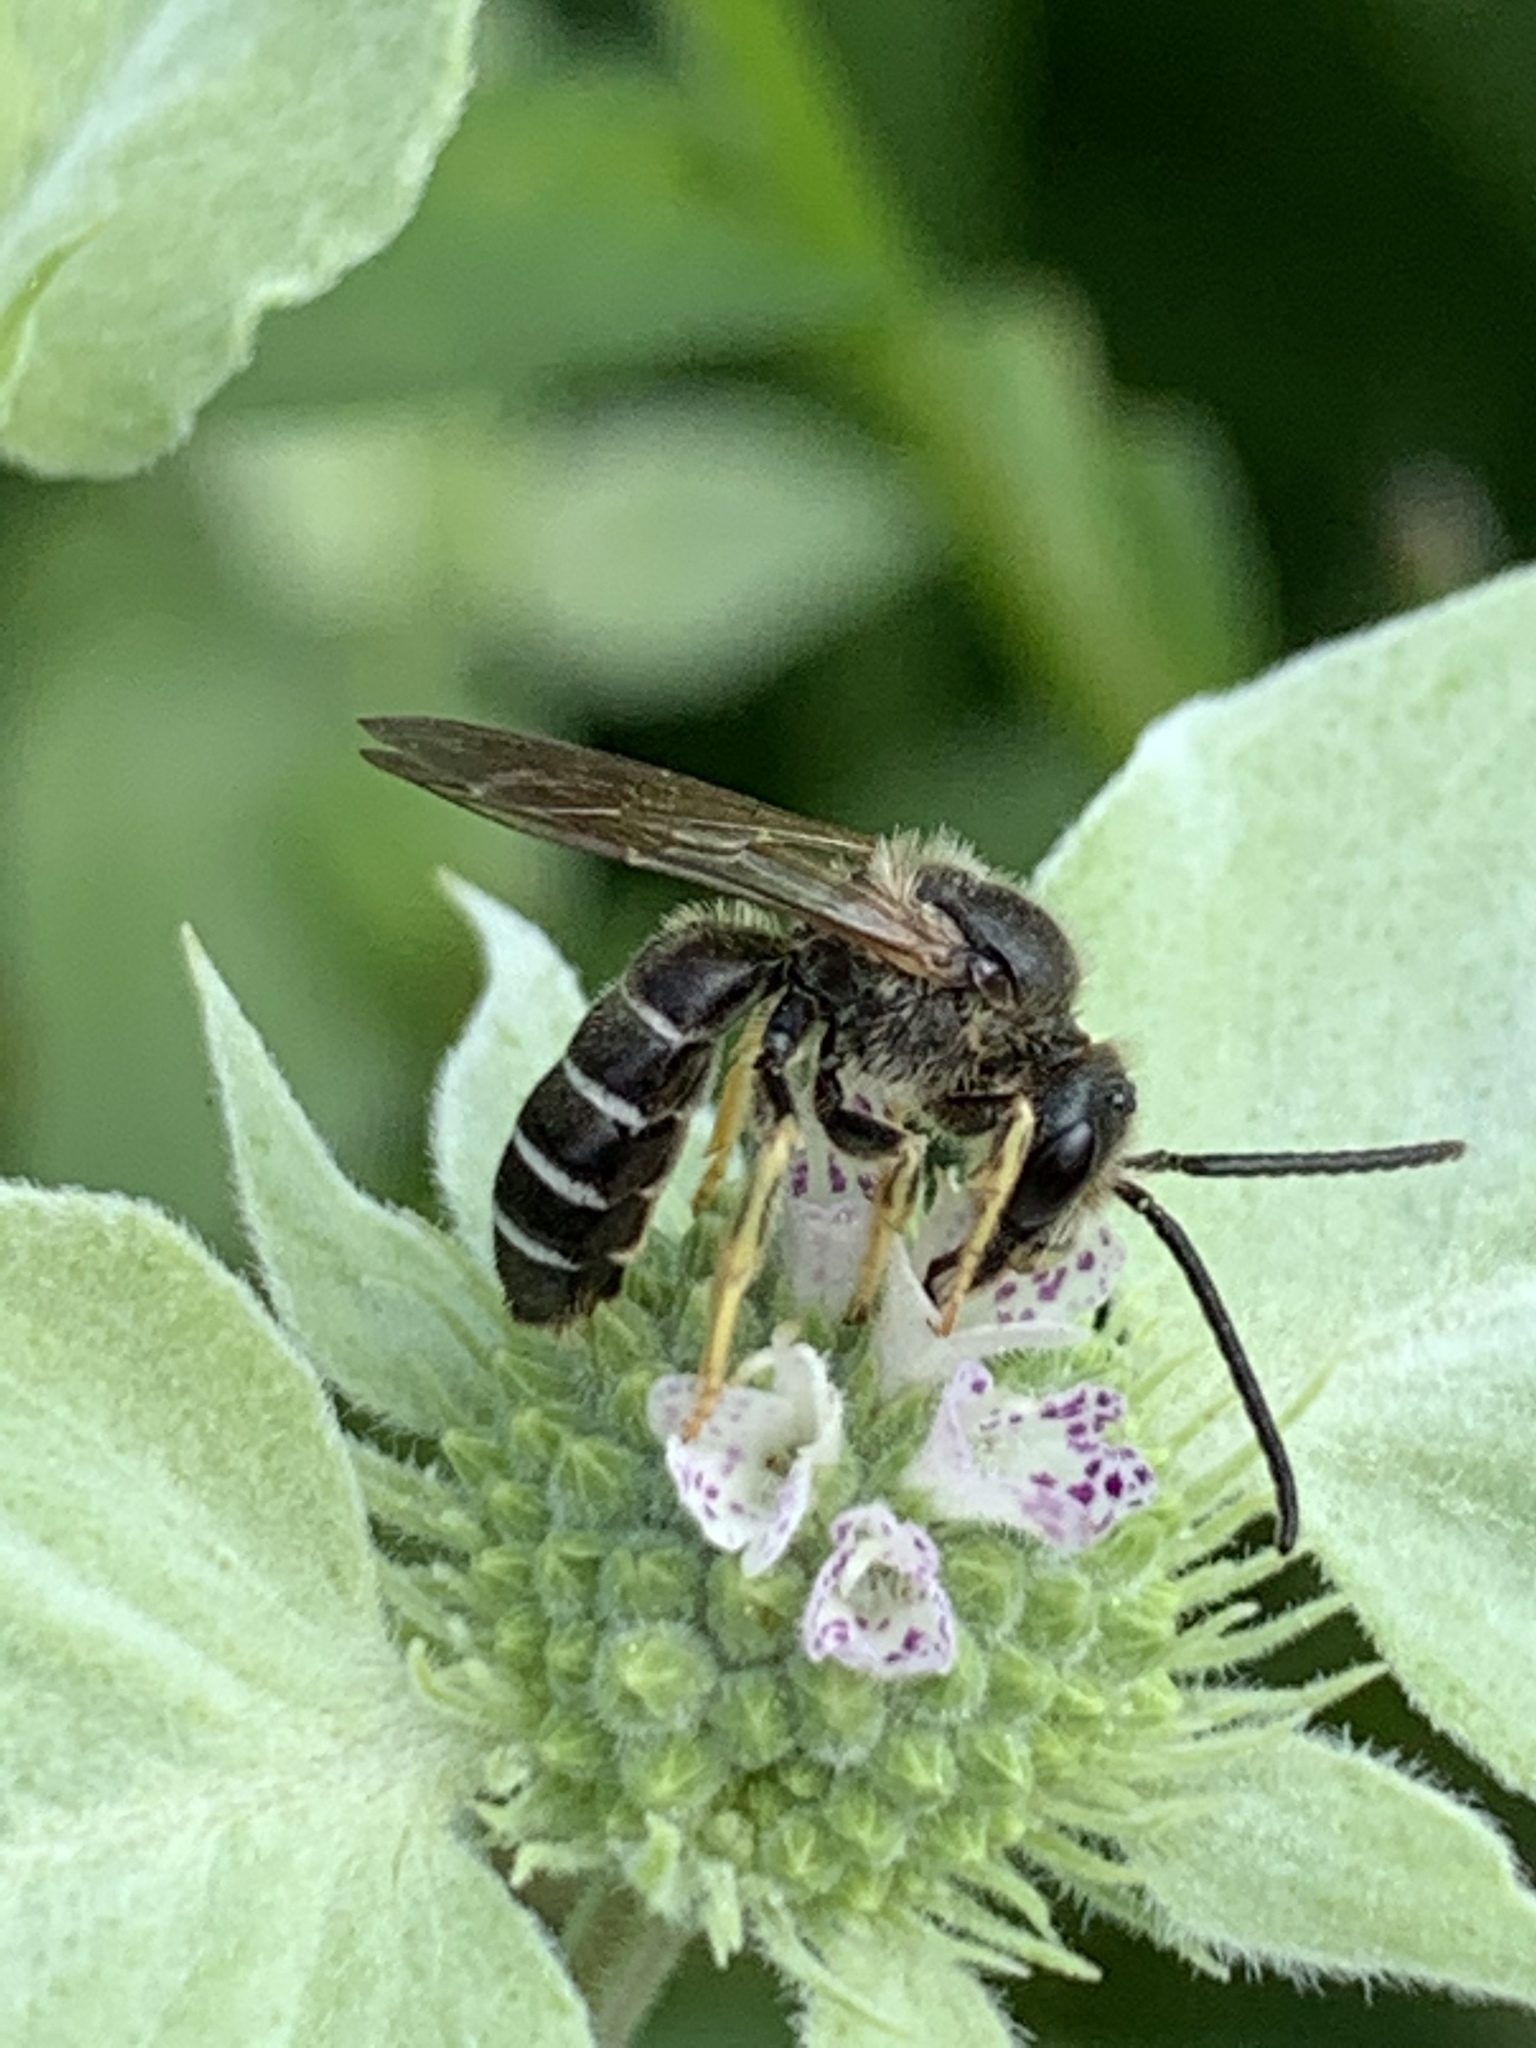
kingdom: Animalia
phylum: Arthropoda
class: Insecta
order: Hymenoptera
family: Halictidae
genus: Halictus
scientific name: Halictus rubicundus
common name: Orange-legged furrow bee
